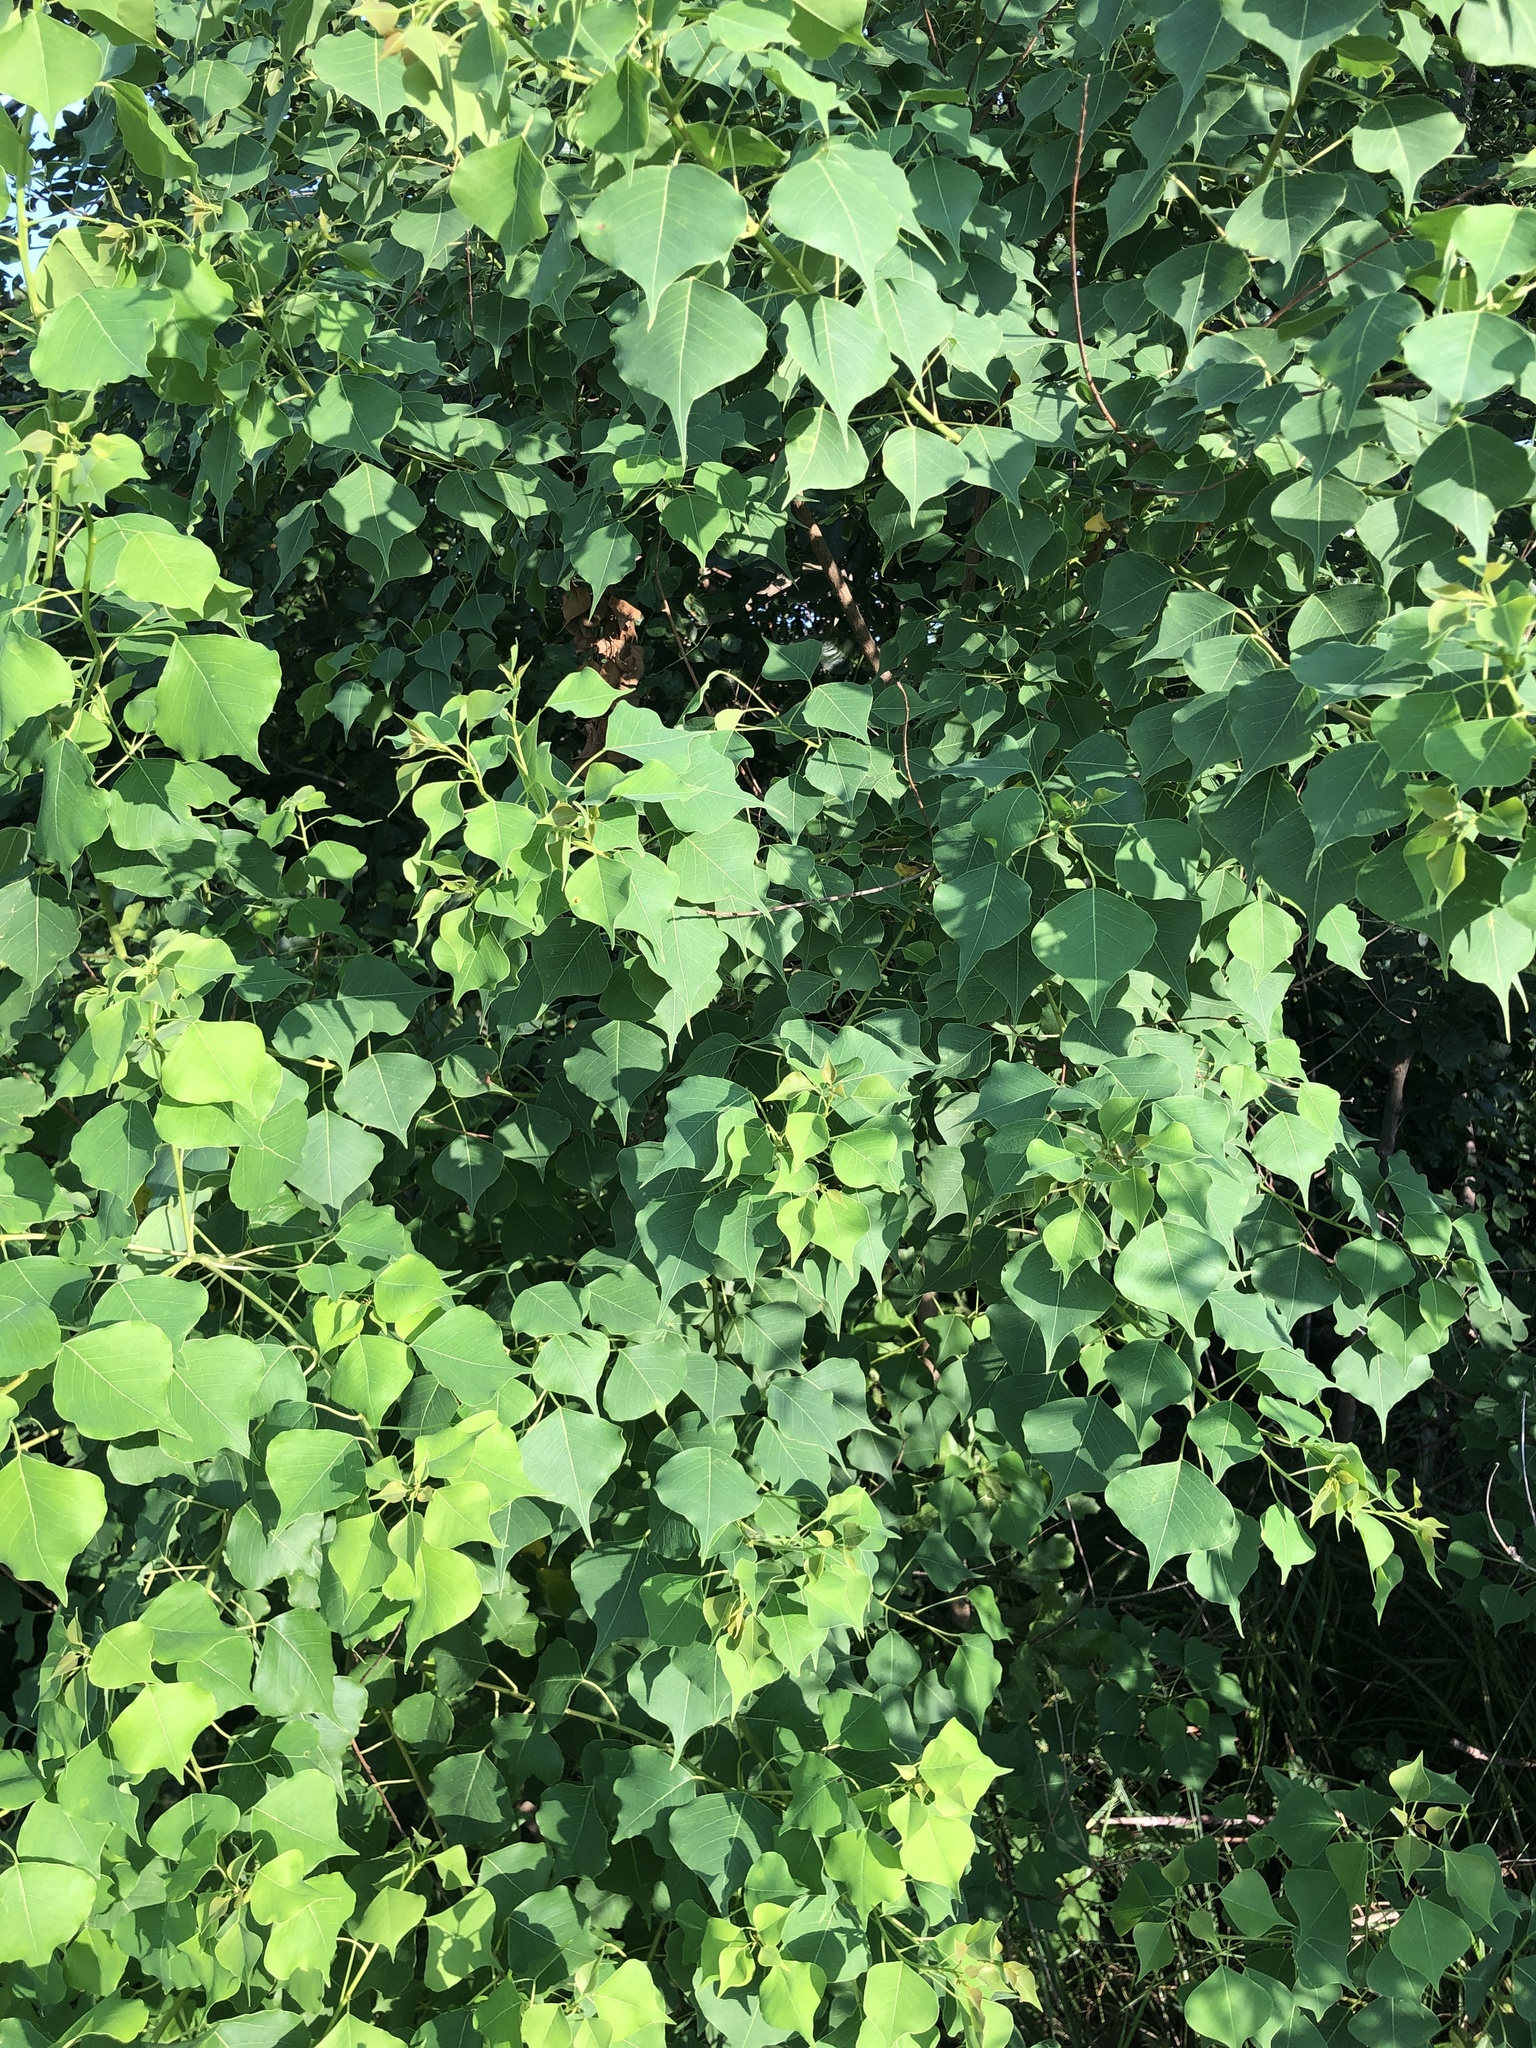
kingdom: Plantae
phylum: Tracheophyta
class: Magnoliopsida
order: Malpighiales
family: Euphorbiaceae
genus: Triadica
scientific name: Triadica sebifera
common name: Chinese tallow
